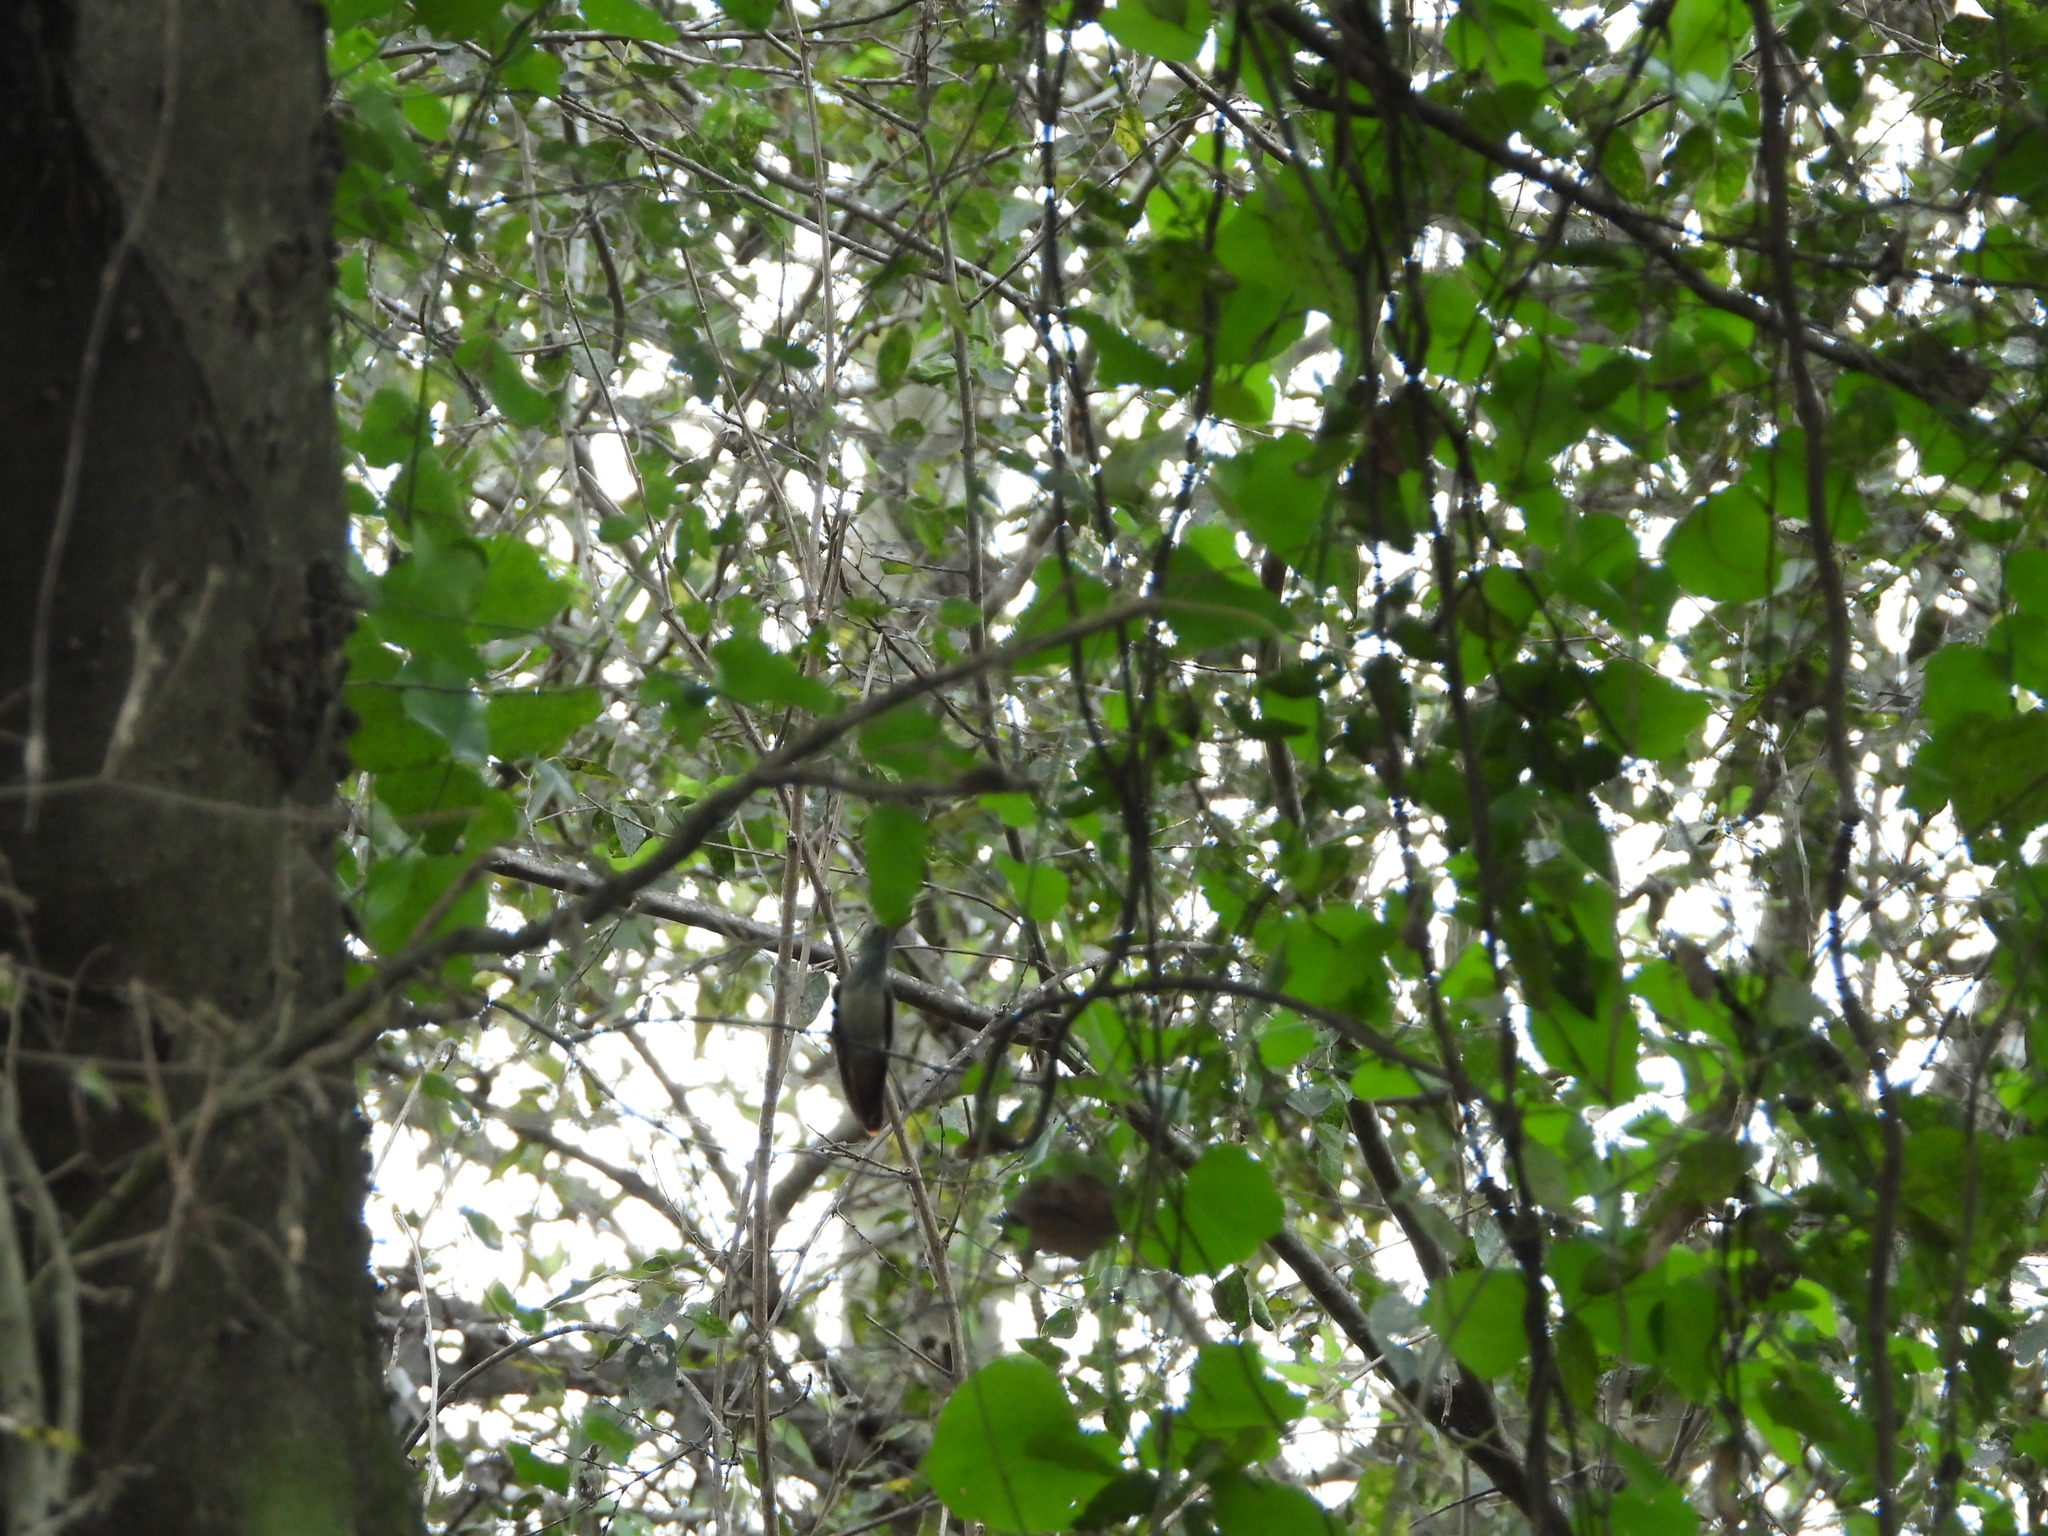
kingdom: Animalia
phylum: Chordata
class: Aves
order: Apodiformes
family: Trochilidae
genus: Amazilia
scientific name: Amazilia yucatanensis
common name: Buff-bellied hummingbird
